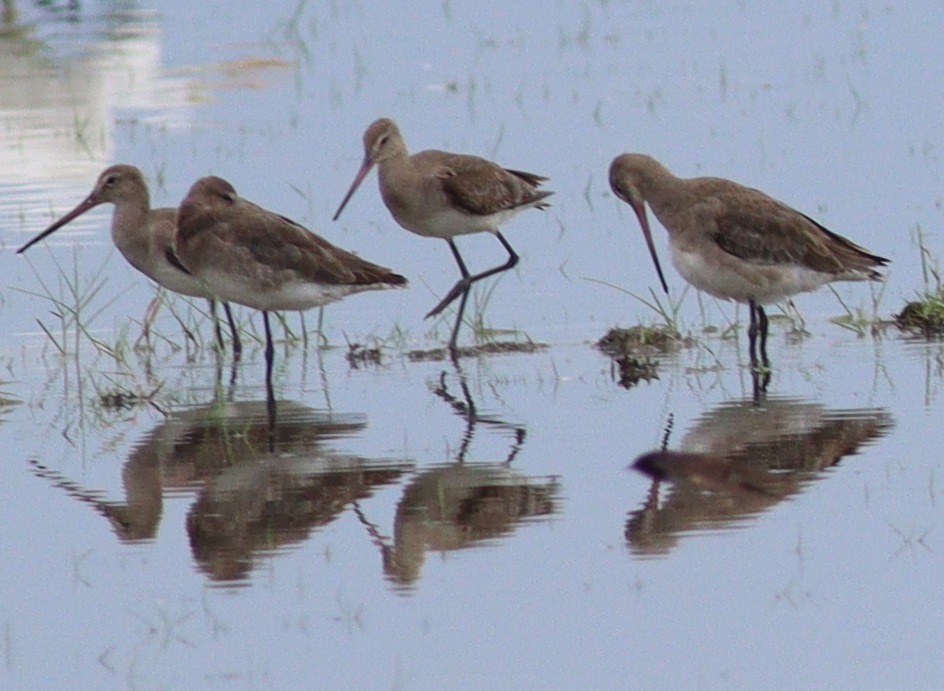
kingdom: Animalia
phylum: Chordata
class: Aves
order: Charadriiformes
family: Scolopacidae
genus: Limosa
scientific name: Limosa limosa
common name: Black-tailed godwit
